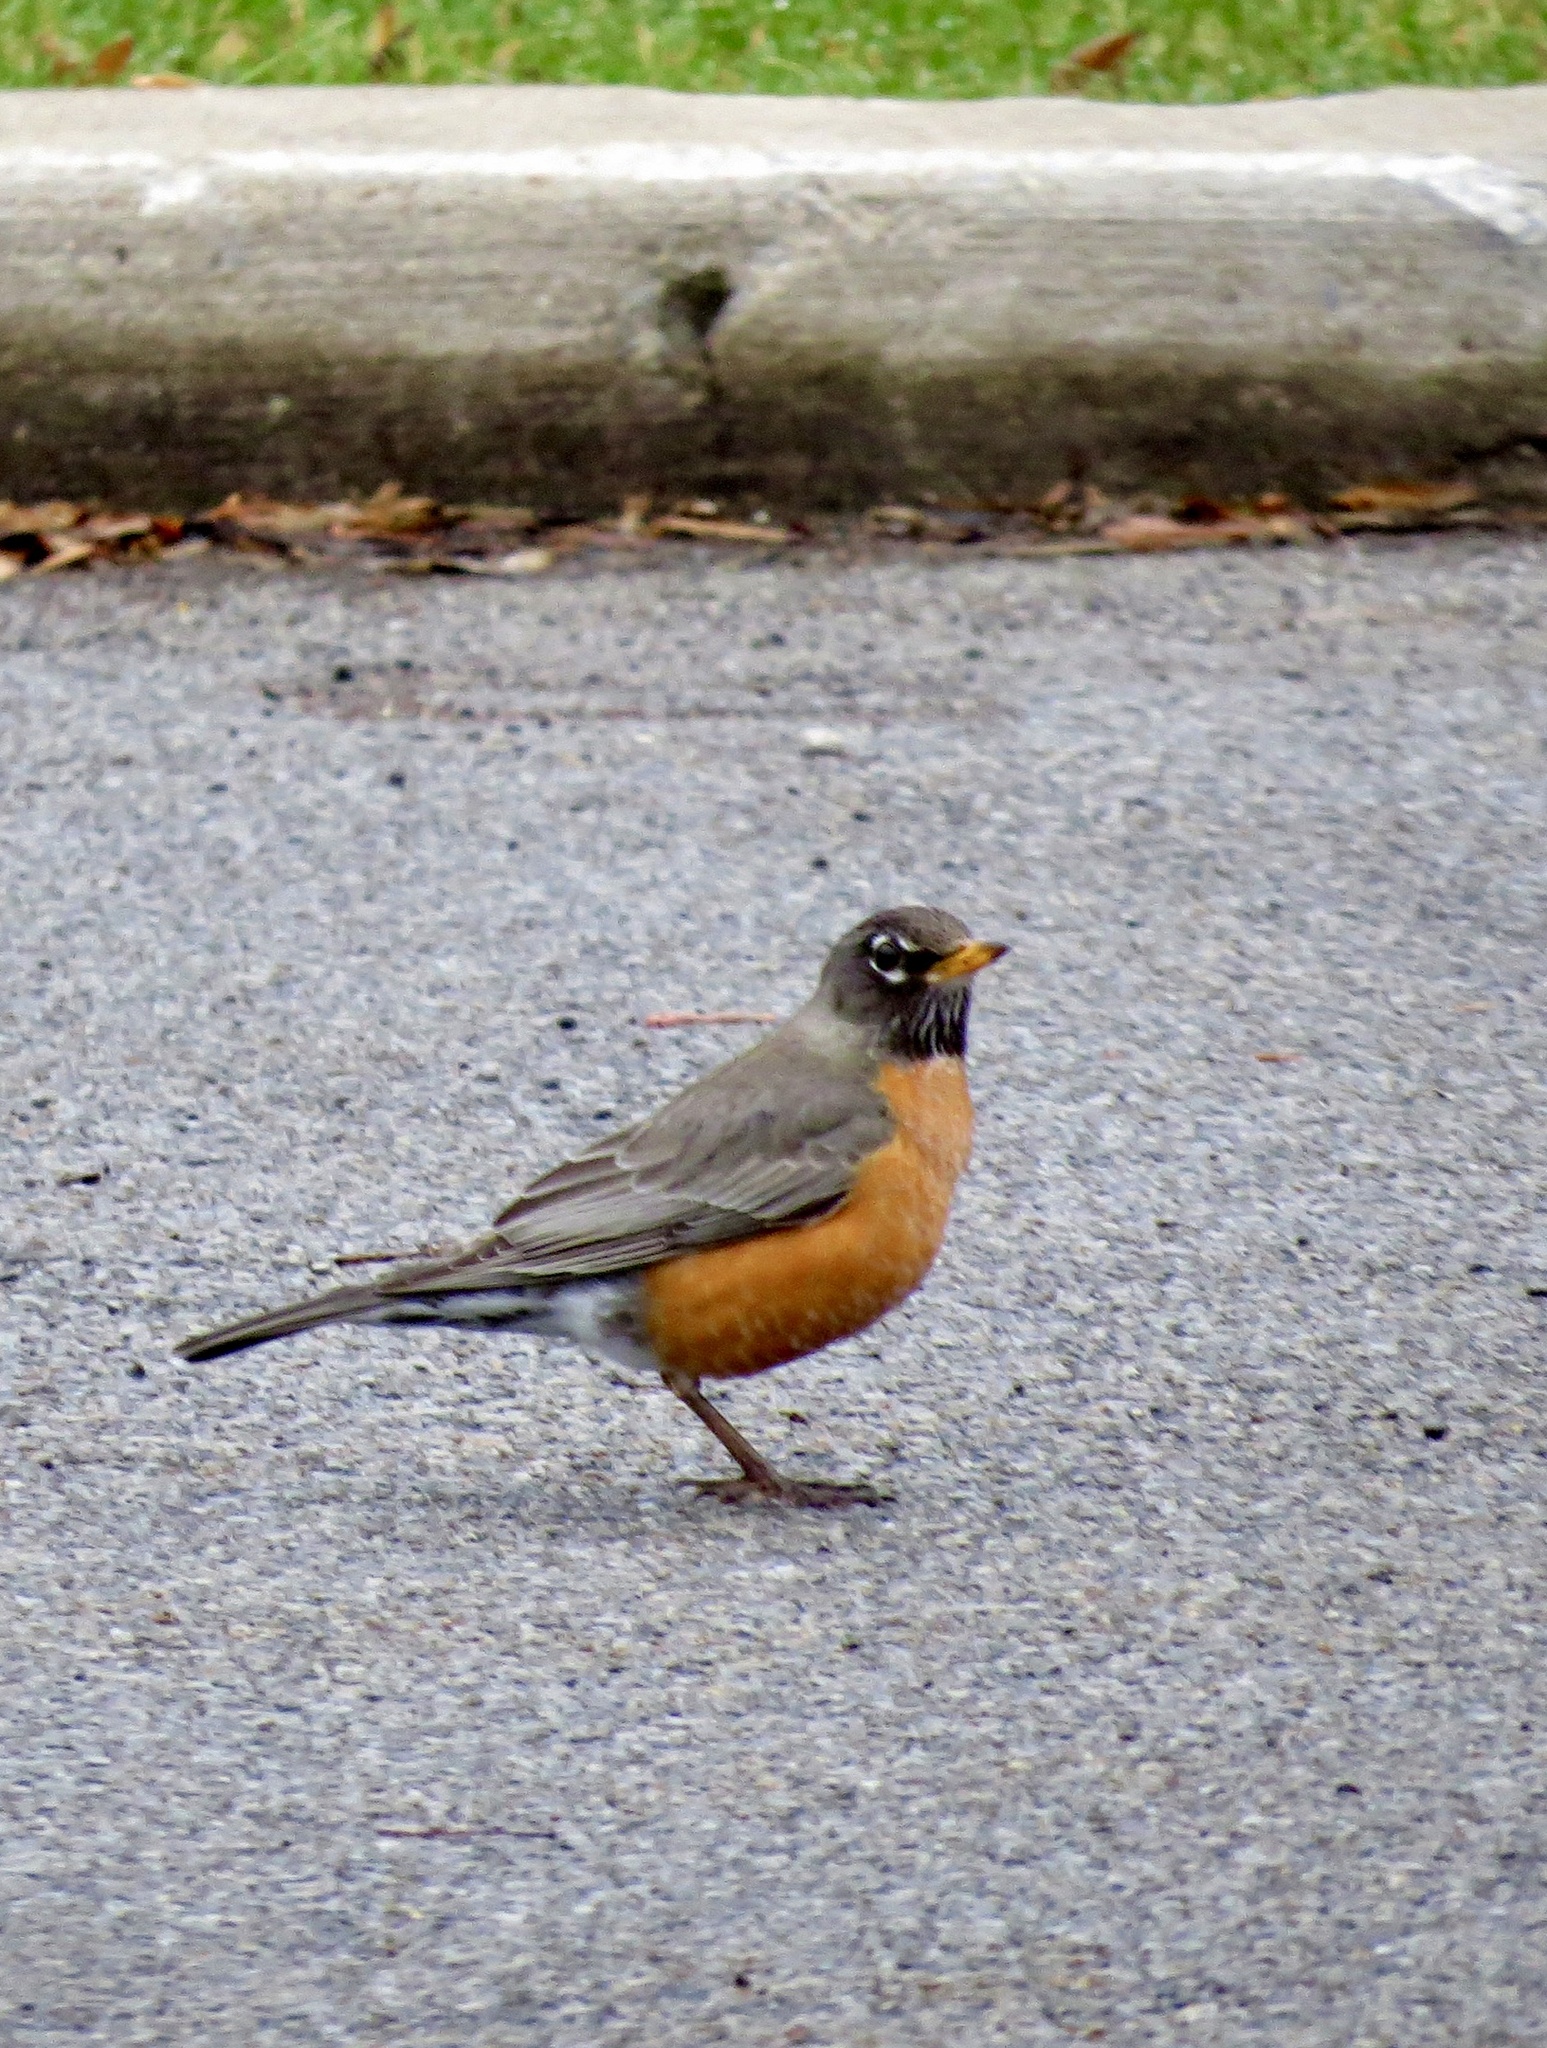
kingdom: Animalia
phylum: Chordata
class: Aves
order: Passeriformes
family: Turdidae
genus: Turdus
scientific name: Turdus migratorius
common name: American robin
